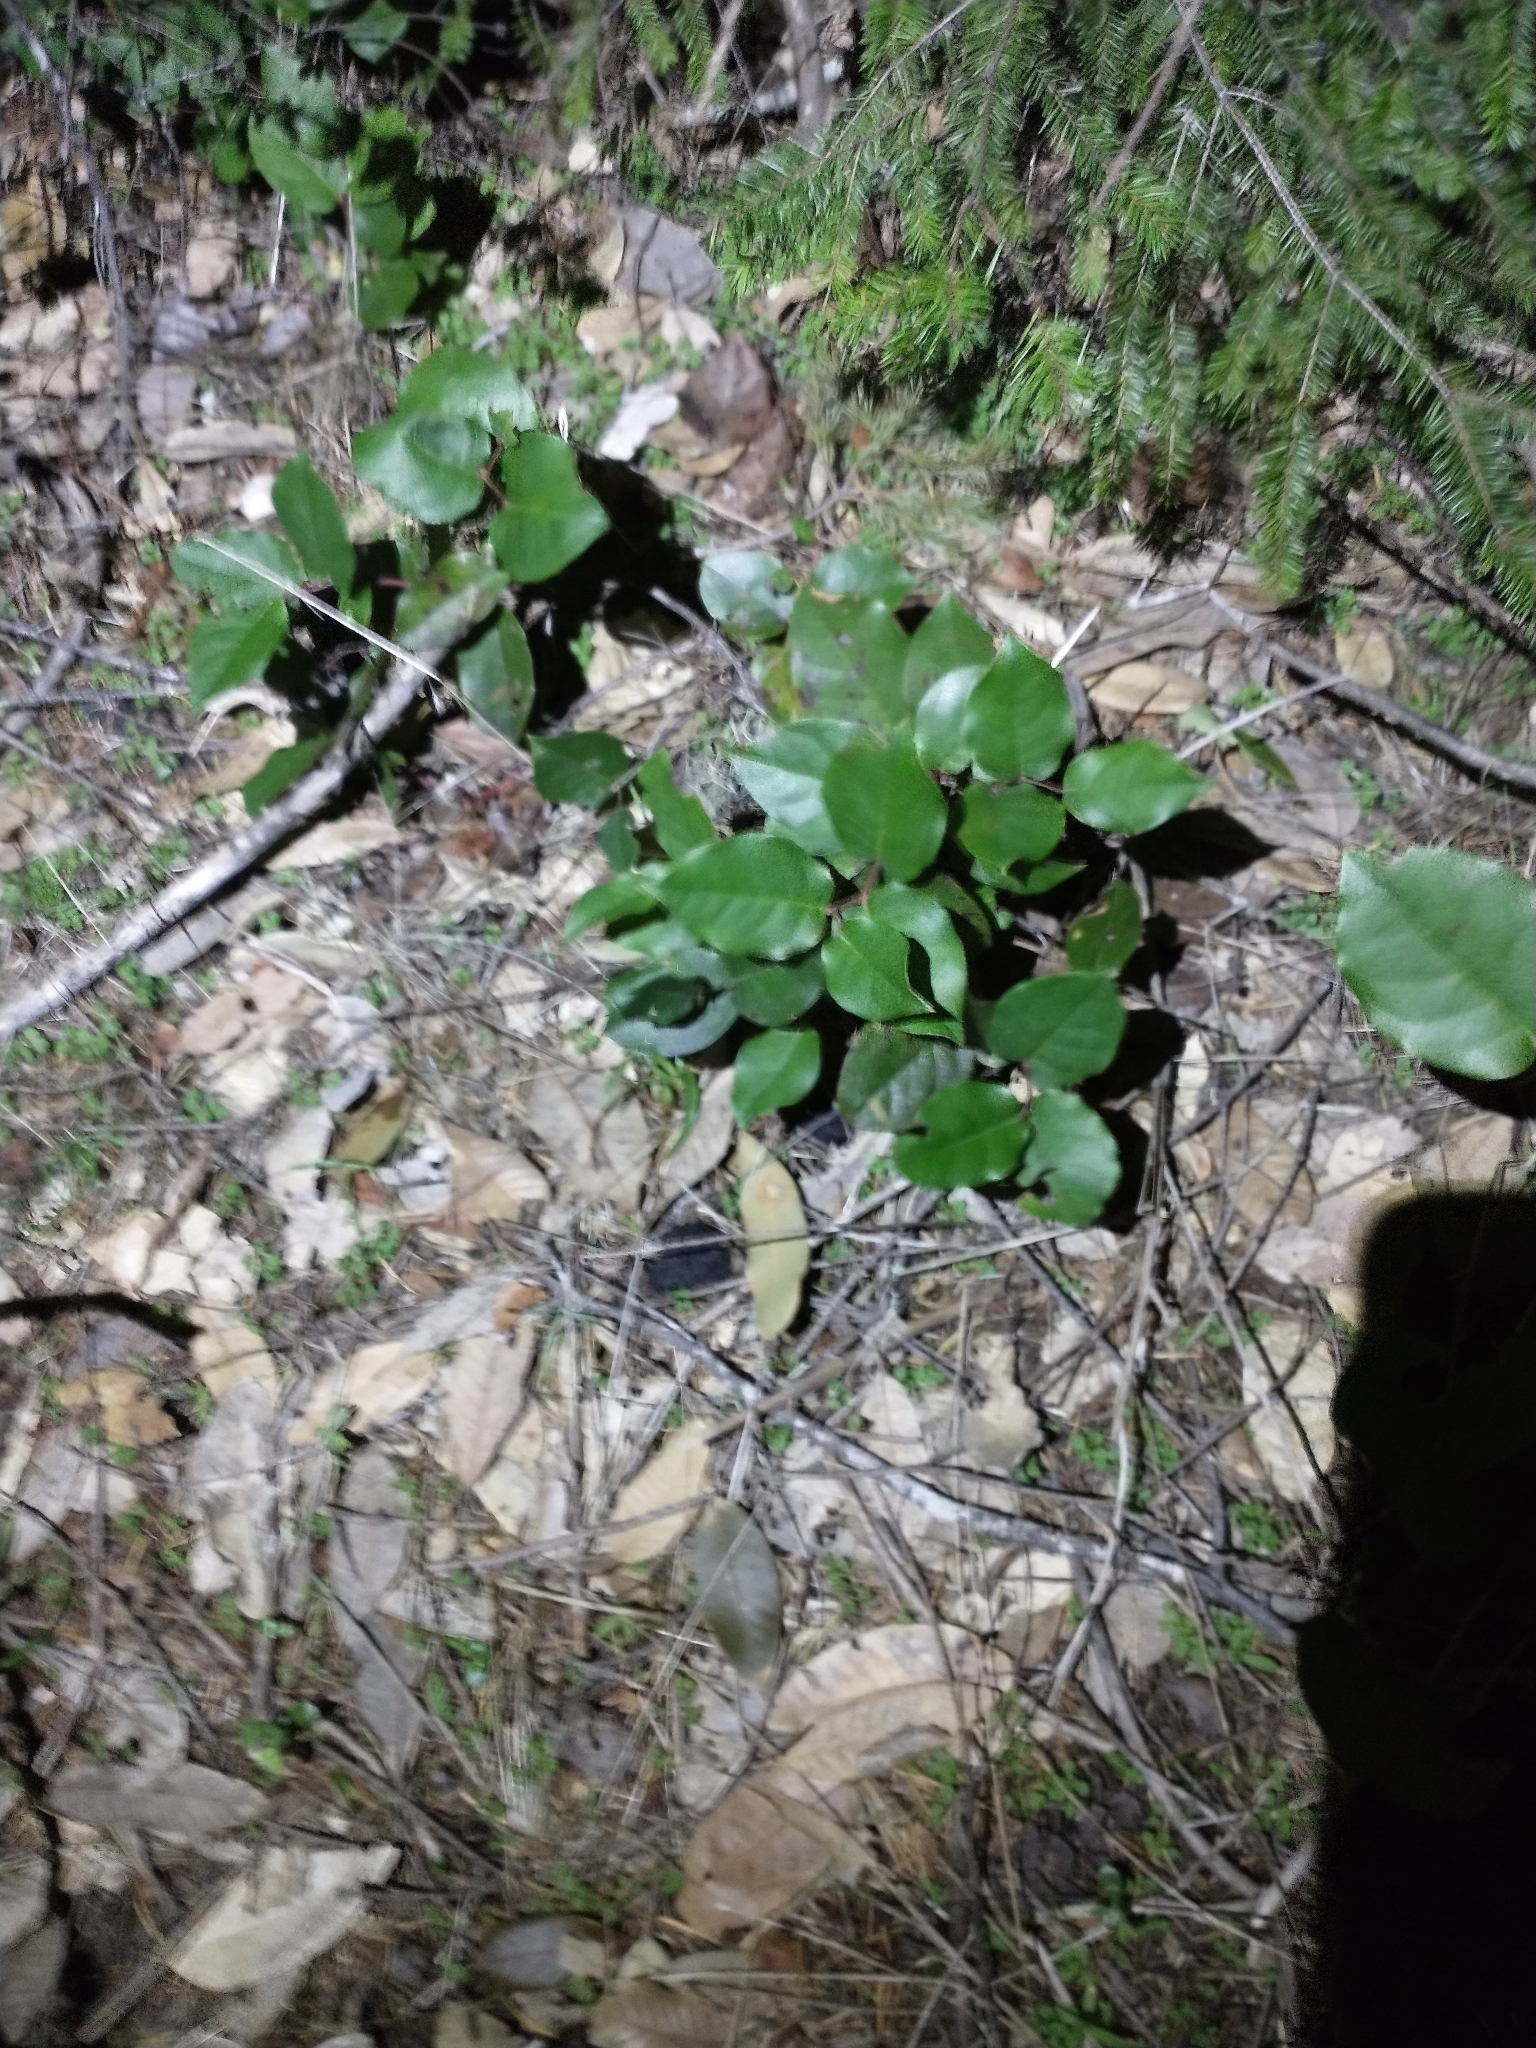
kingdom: Plantae
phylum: Tracheophyta
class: Magnoliopsida
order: Ericales
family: Ericaceae
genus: Gaultheria
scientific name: Gaultheria shallon
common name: Shallon
